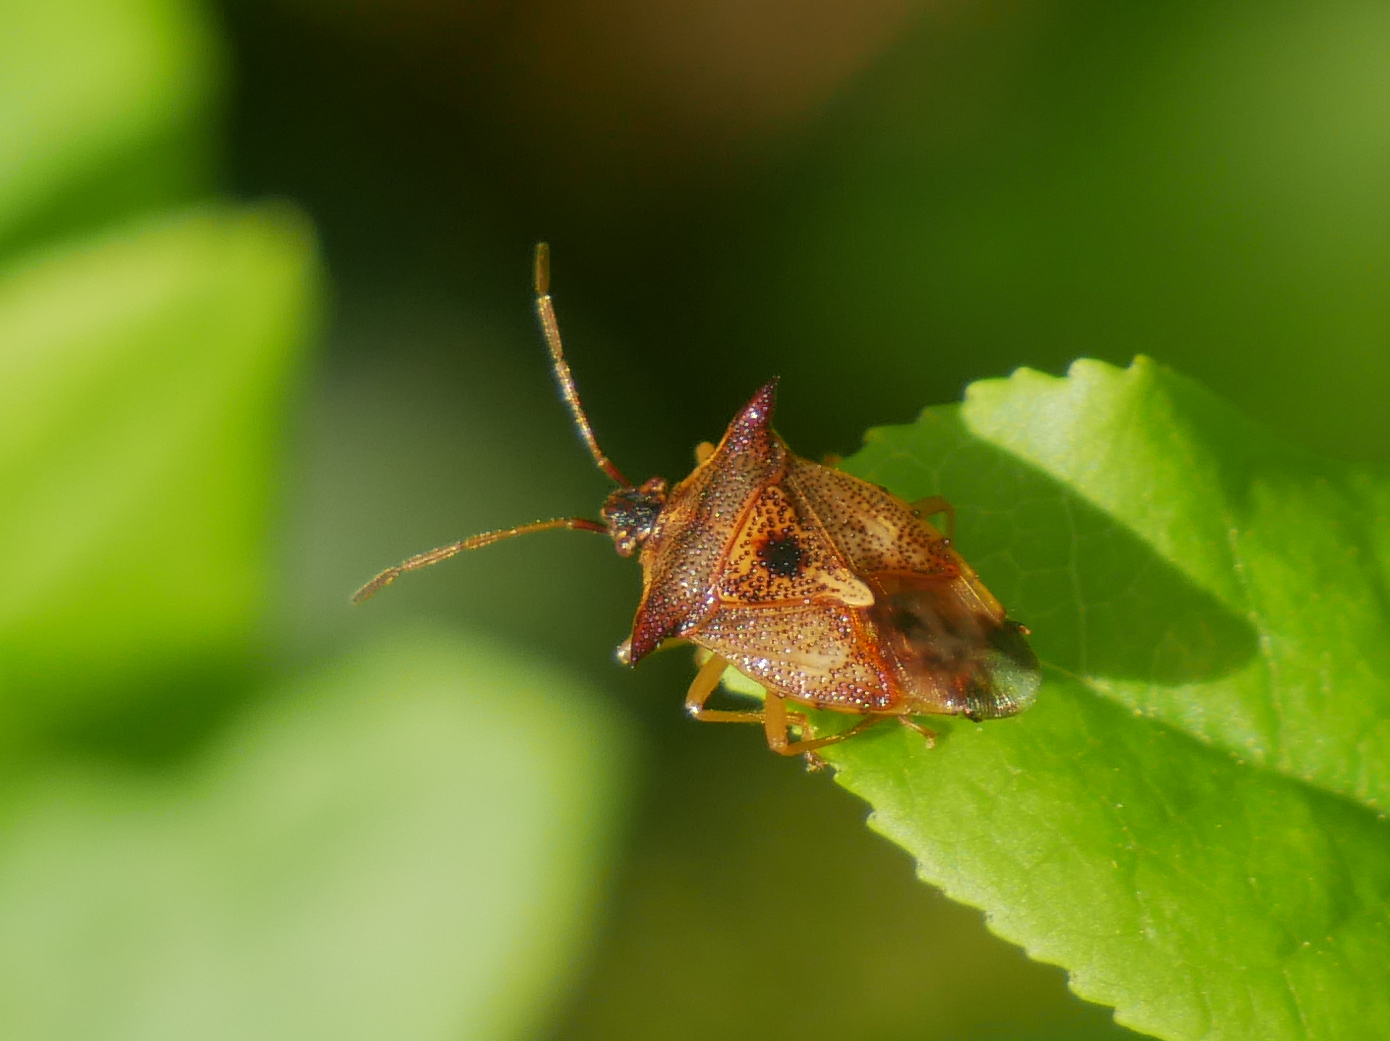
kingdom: Animalia
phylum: Arthropoda
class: Insecta
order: Hemiptera
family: Acanthosomatidae
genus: Elasmucha
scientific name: Elasmucha ferrugata
